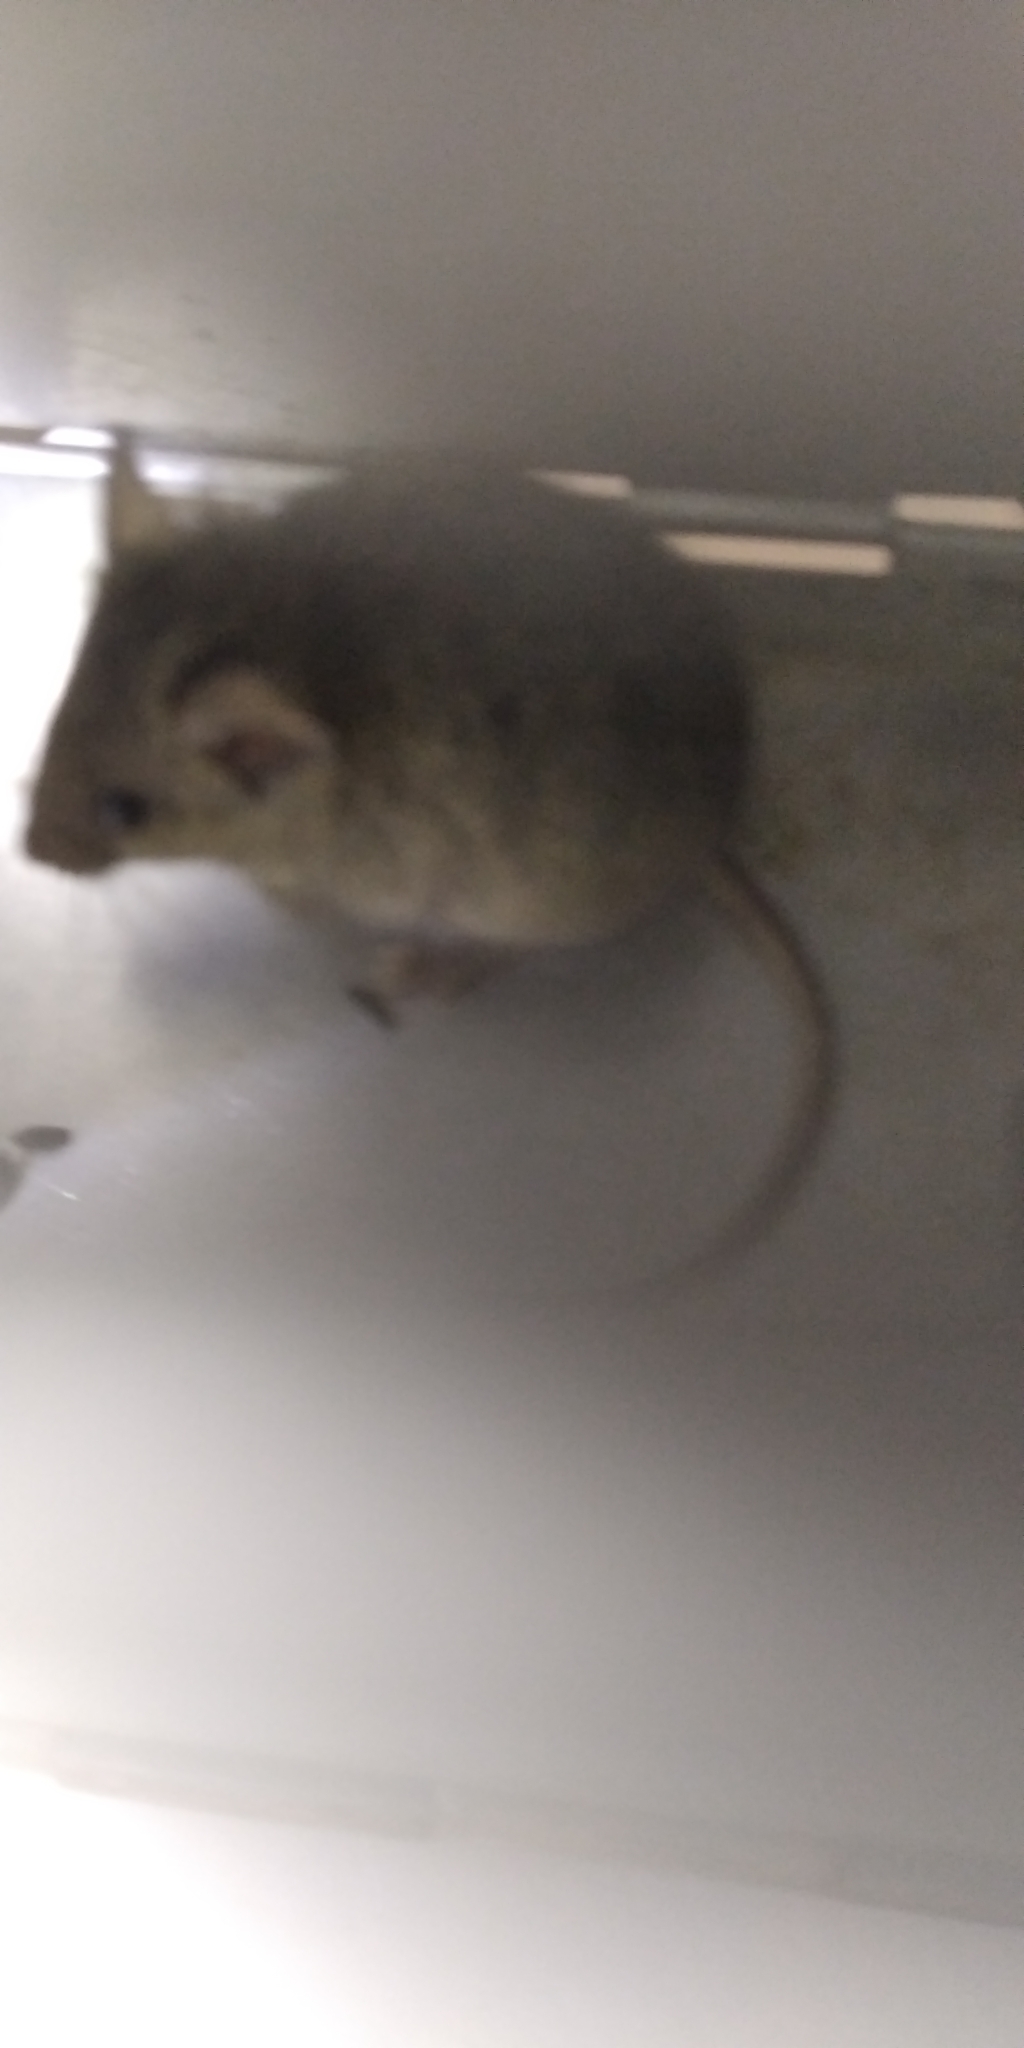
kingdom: Animalia
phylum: Chordata
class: Mammalia
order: Rodentia
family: Muridae
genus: Mus
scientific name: Mus musculus
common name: House mouse
